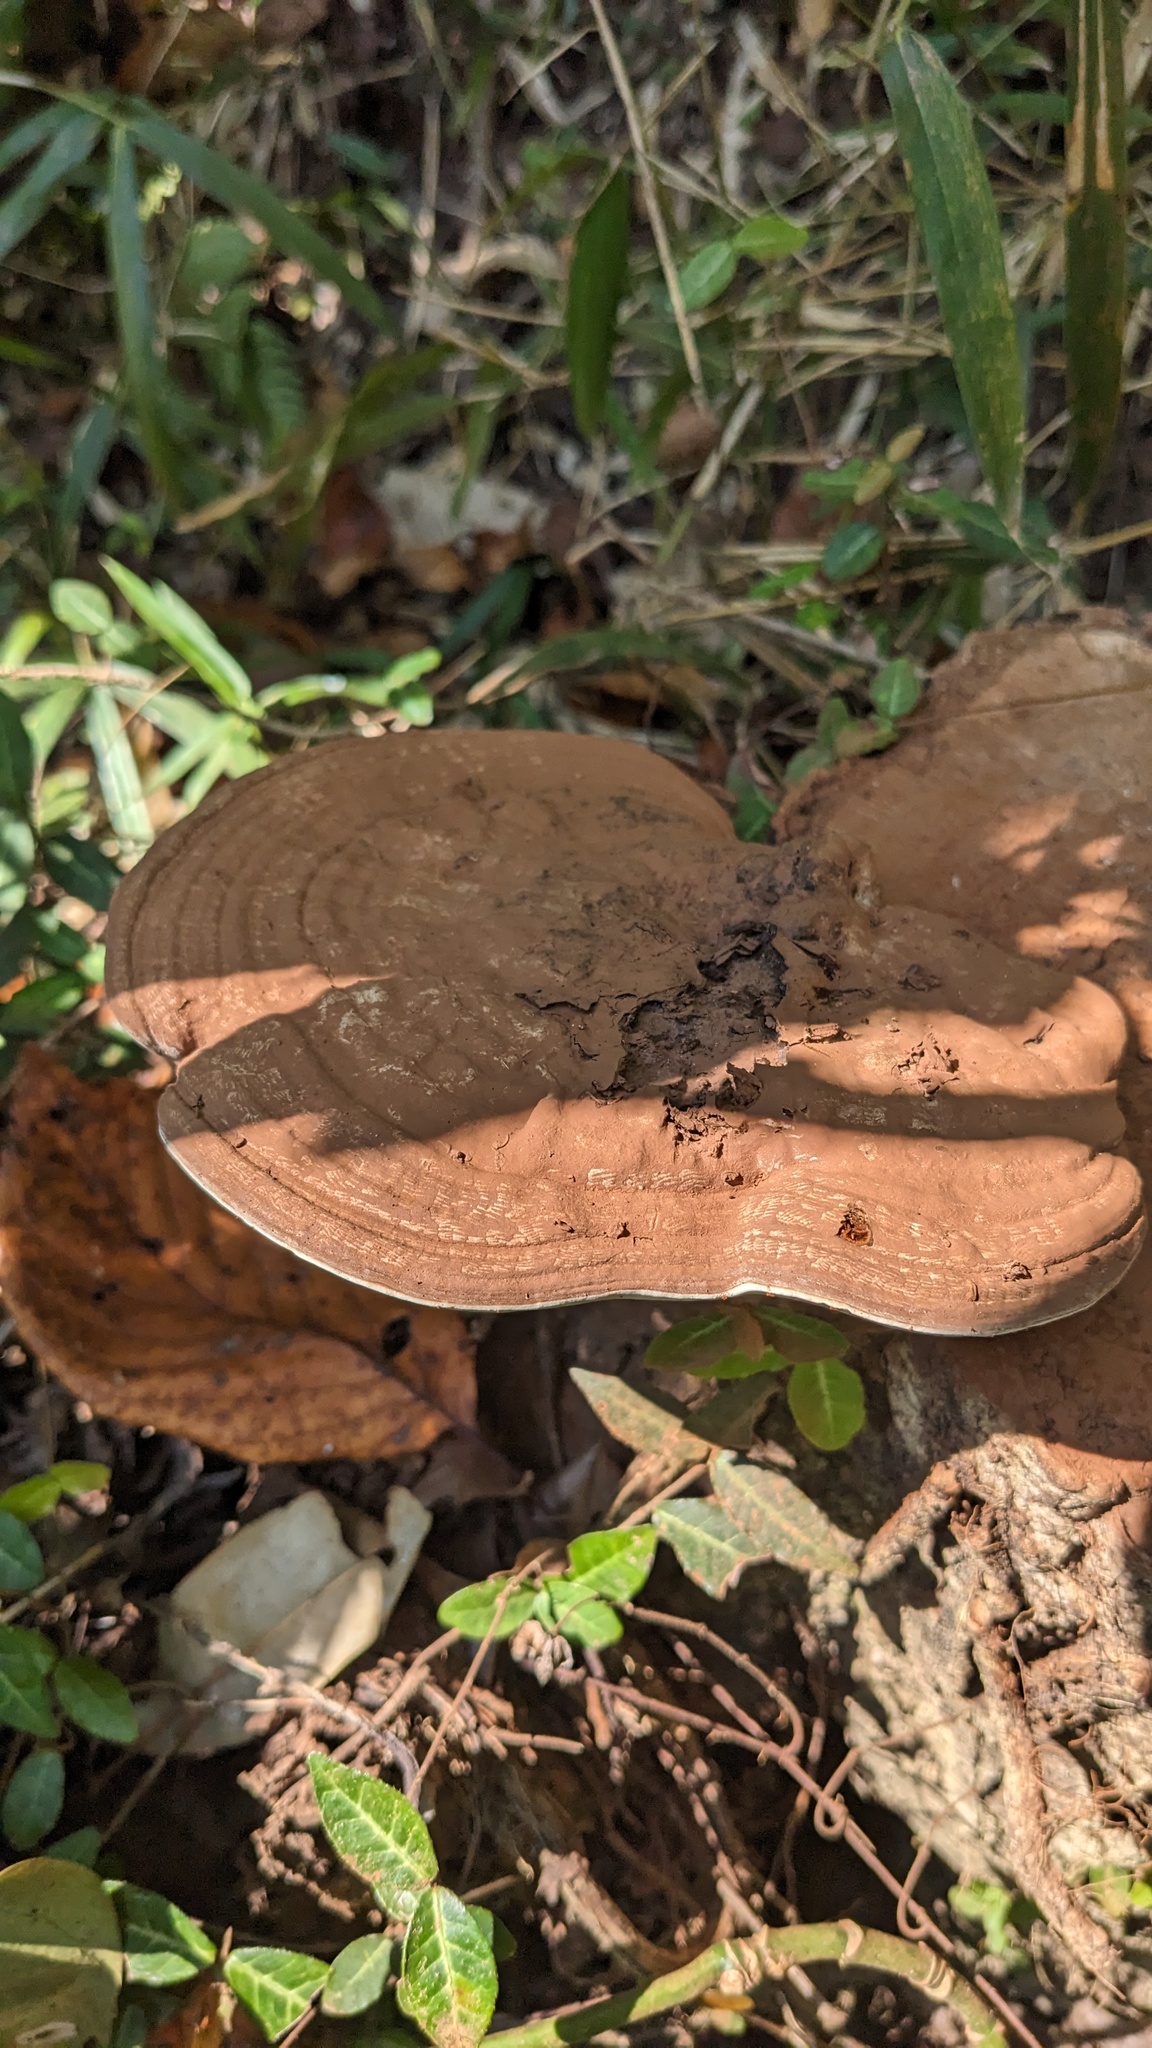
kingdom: Fungi
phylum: Basidiomycota
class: Agaricomycetes
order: Polyporales
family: Polyporaceae
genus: Ganoderma
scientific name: Ganoderma applanatum
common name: Artist's bracket
